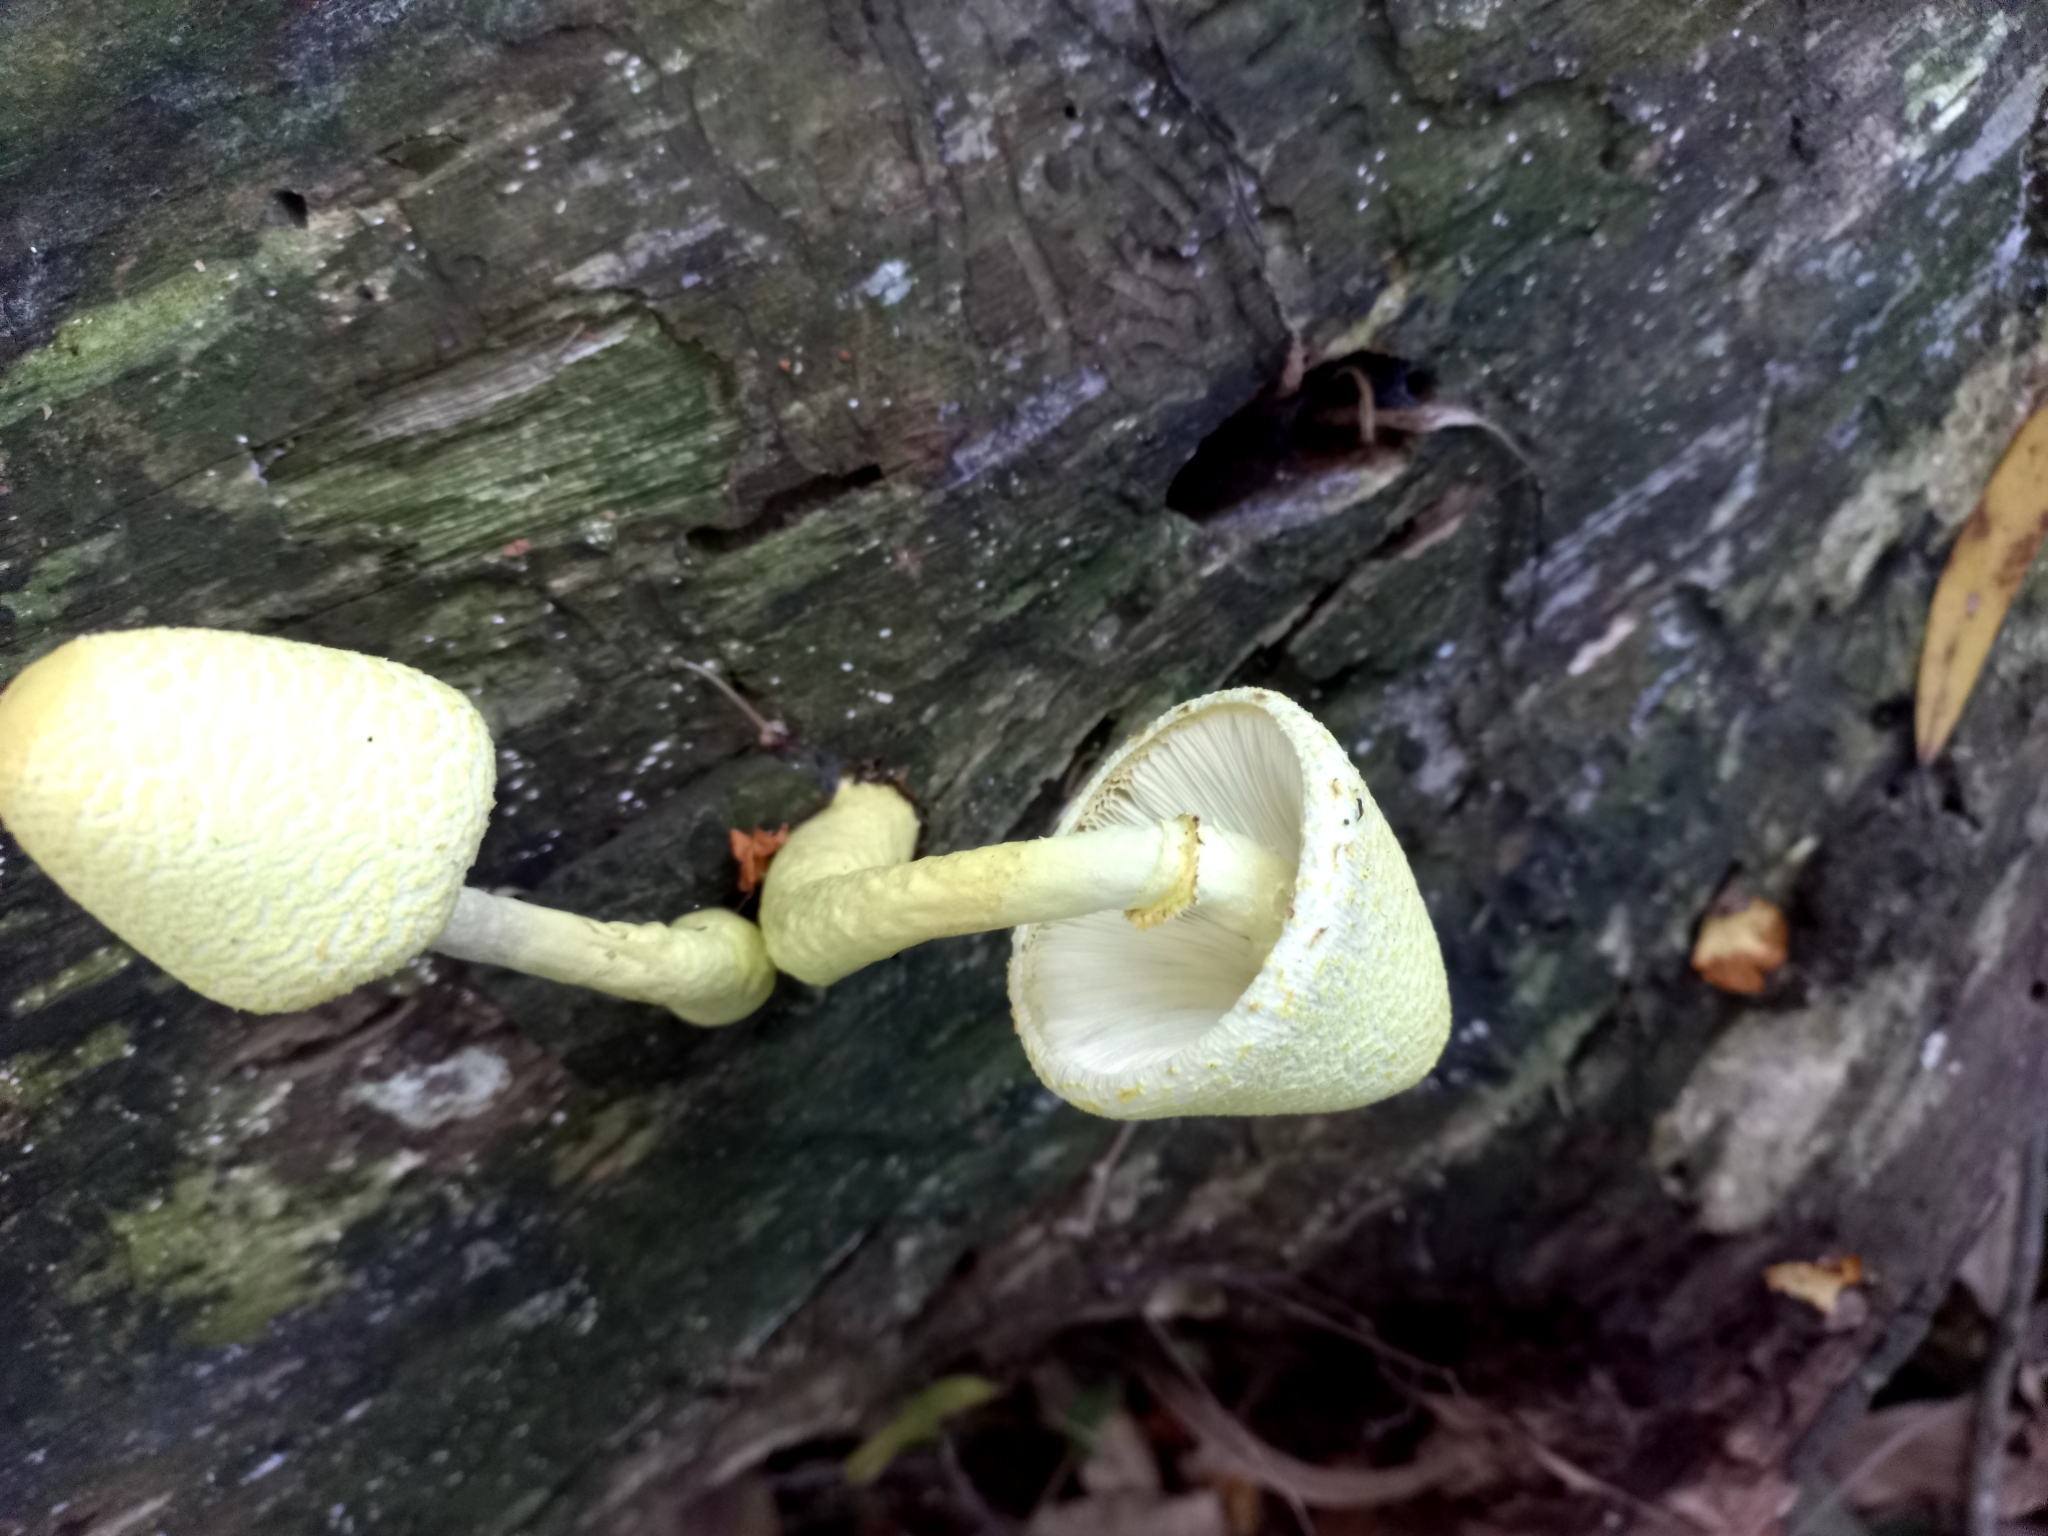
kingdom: Fungi
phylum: Basidiomycota
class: Agaricomycetes
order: Agaricales
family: Agaricaceae
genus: Leucocoprinus
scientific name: Leucocoprinus birnbaumii
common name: Plantpot dapperling
